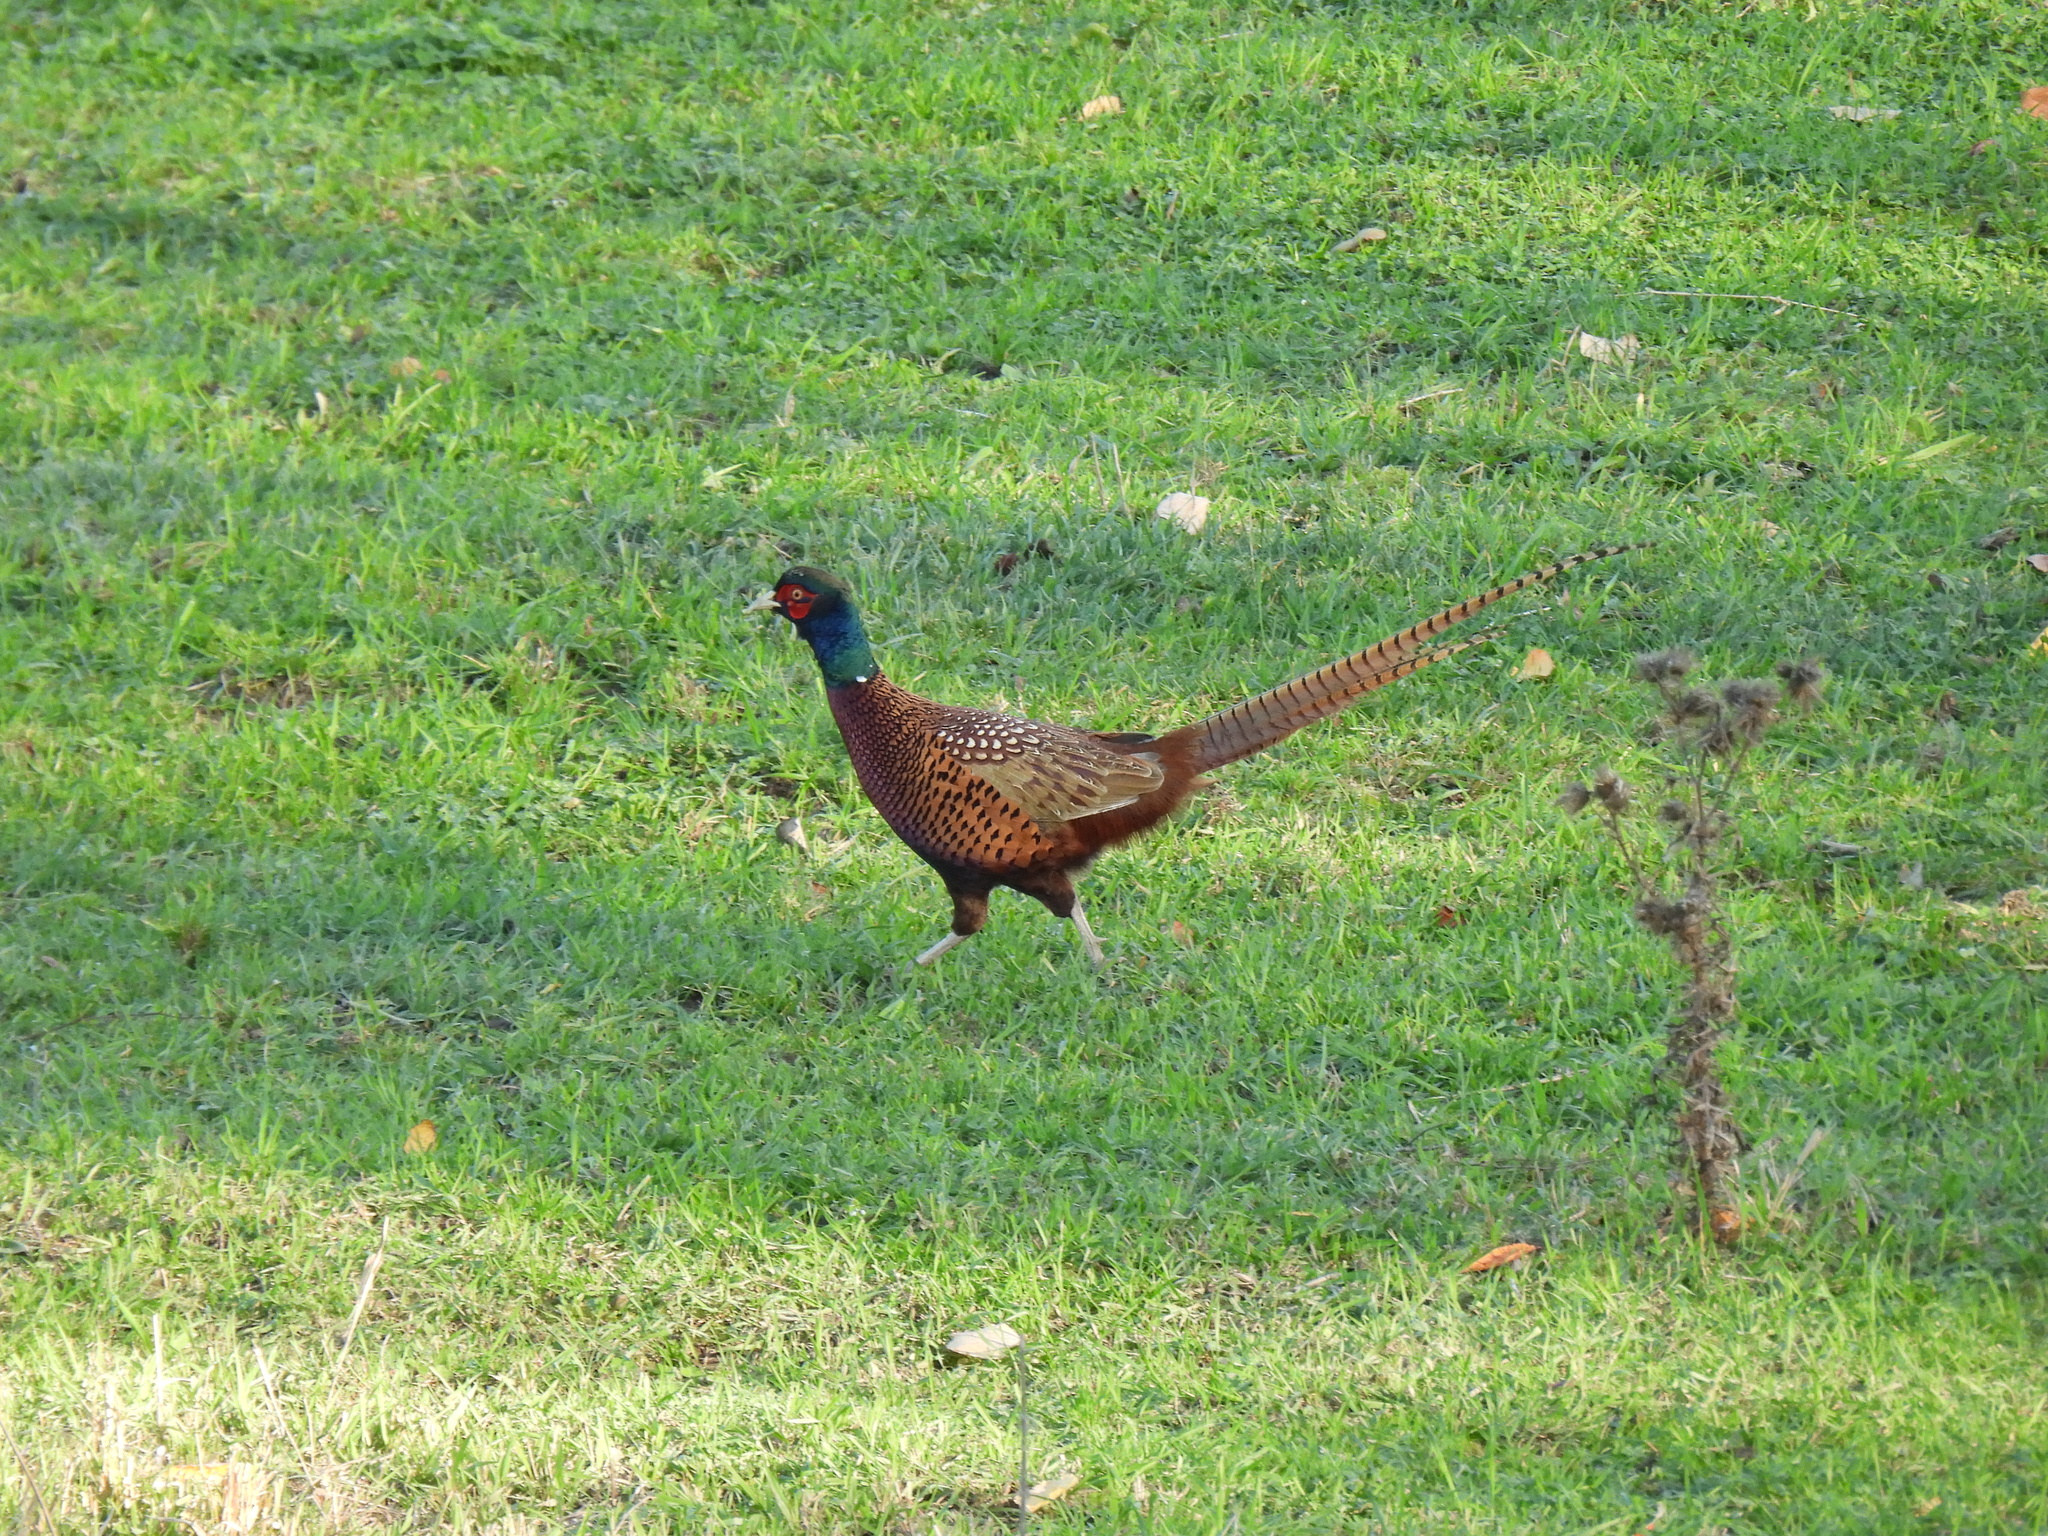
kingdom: Animalia
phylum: Chordata
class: Aves
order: Galliformes
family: Phasianidae
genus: Phasianus
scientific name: Phasianus colchicus
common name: Common pheasant
